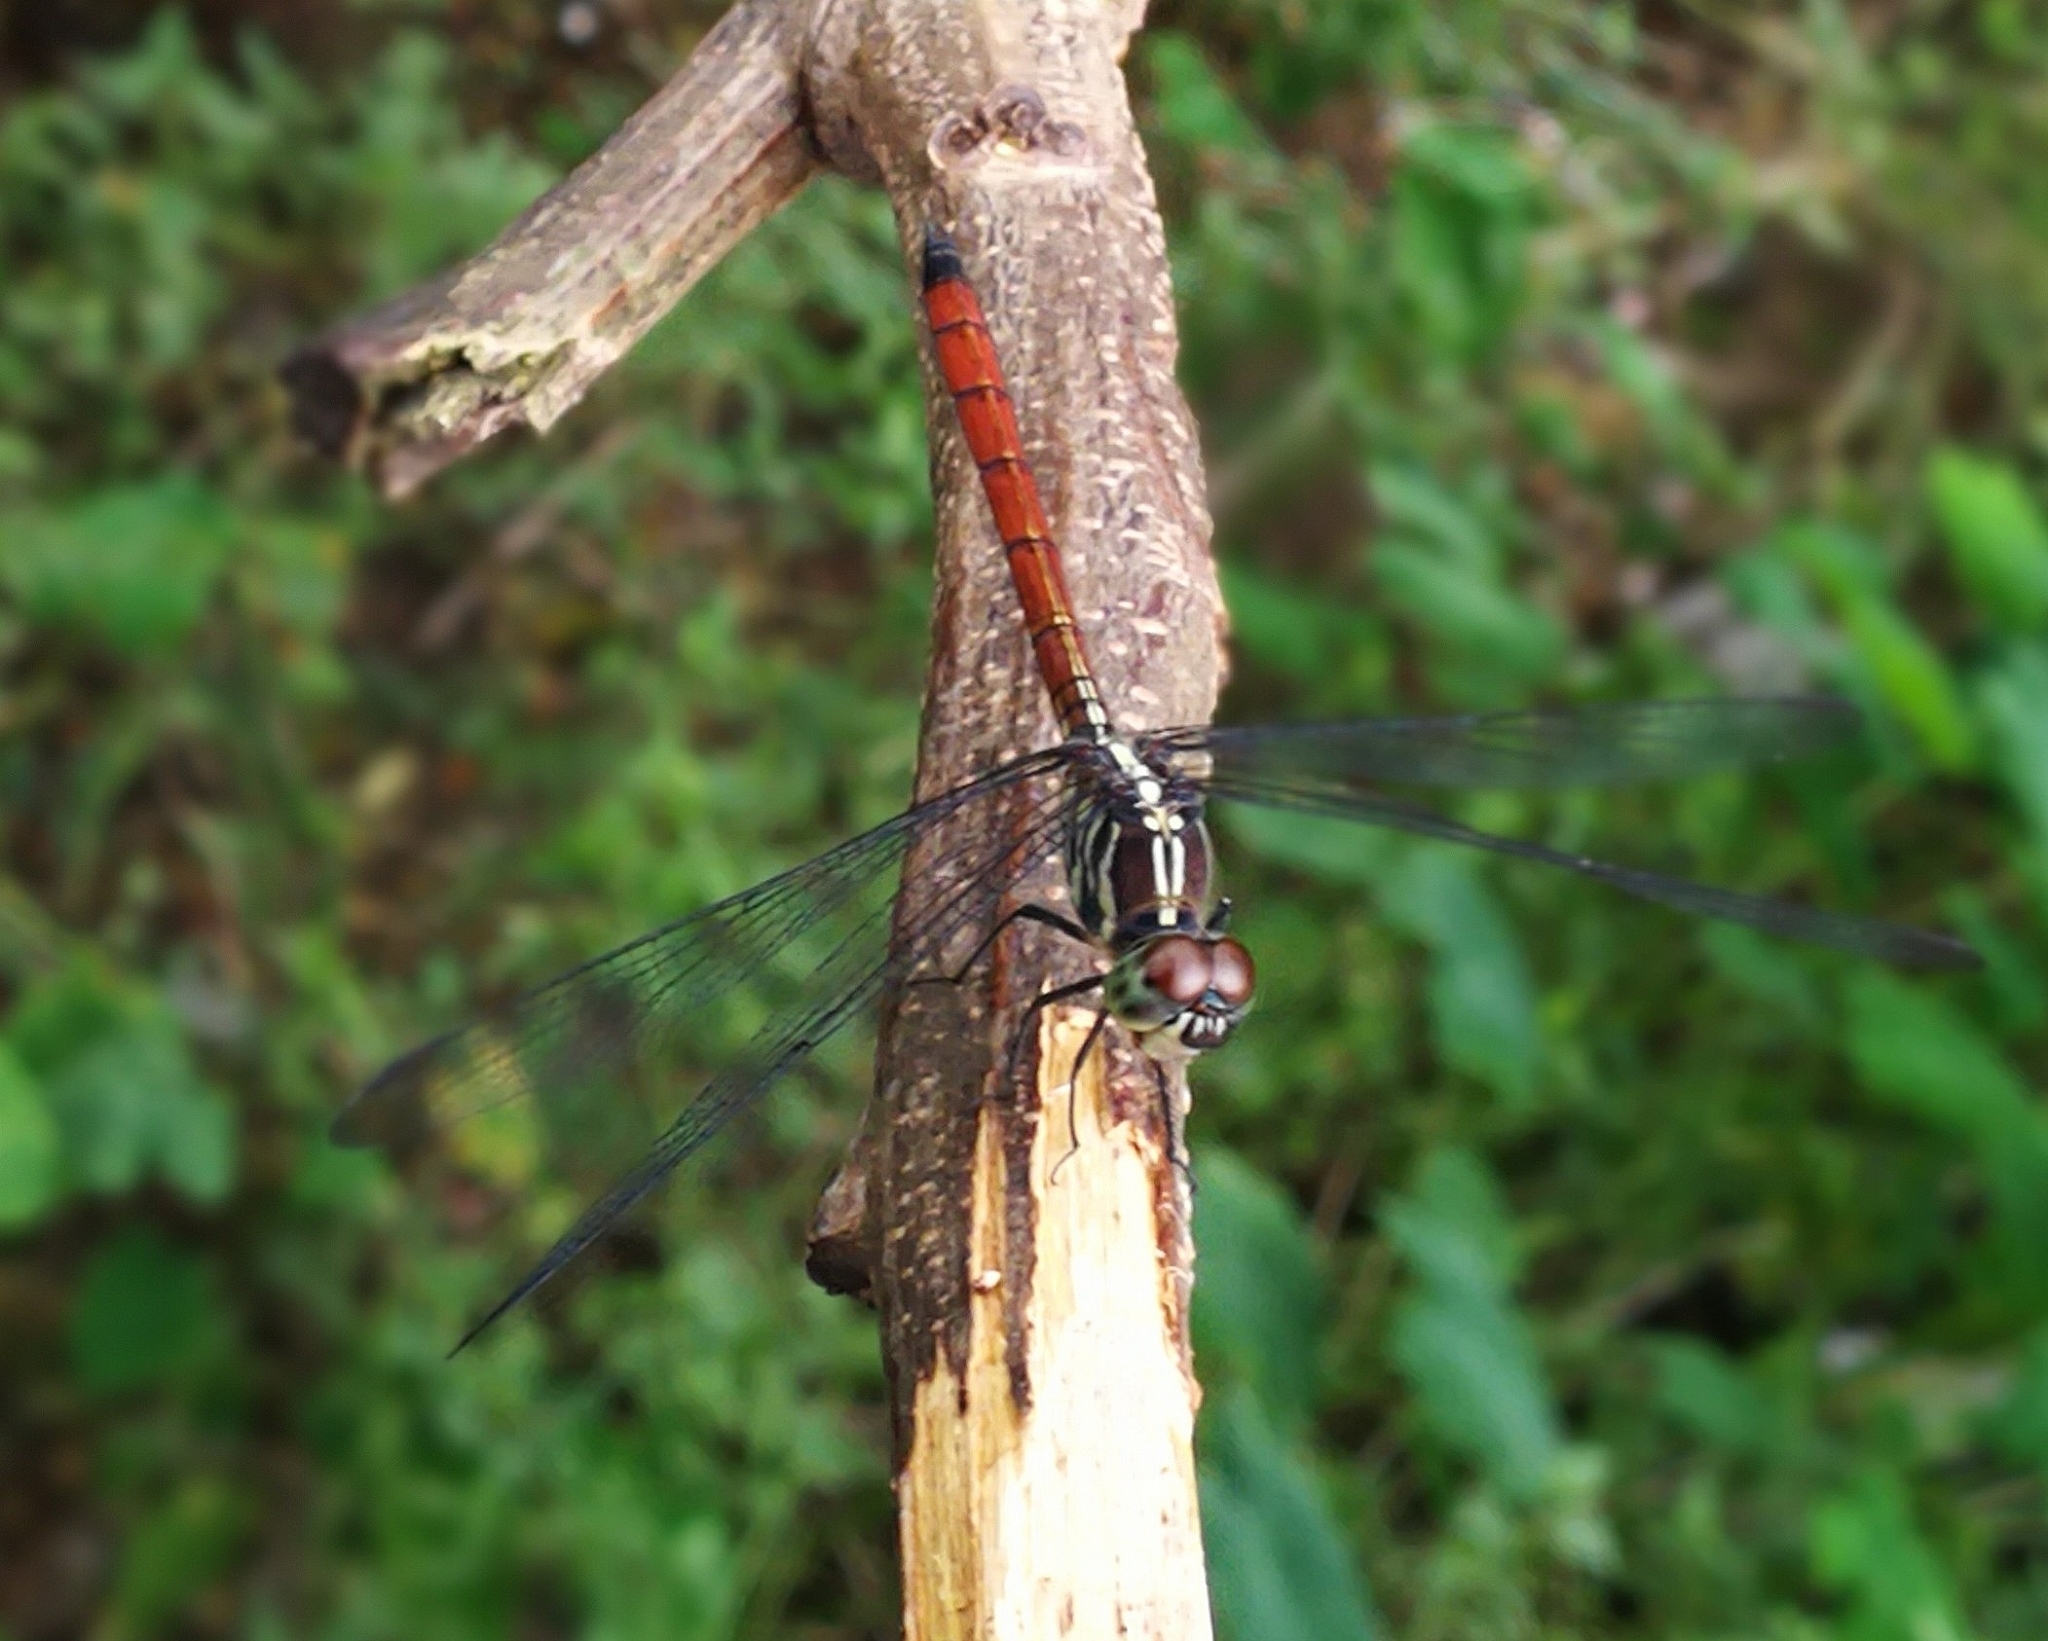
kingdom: Animalia
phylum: Arthropoda
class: Insecta
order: Odonata
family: Libellulidae
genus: Lathrecista
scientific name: Lathrecista asiatica
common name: Scarlet grenadier
